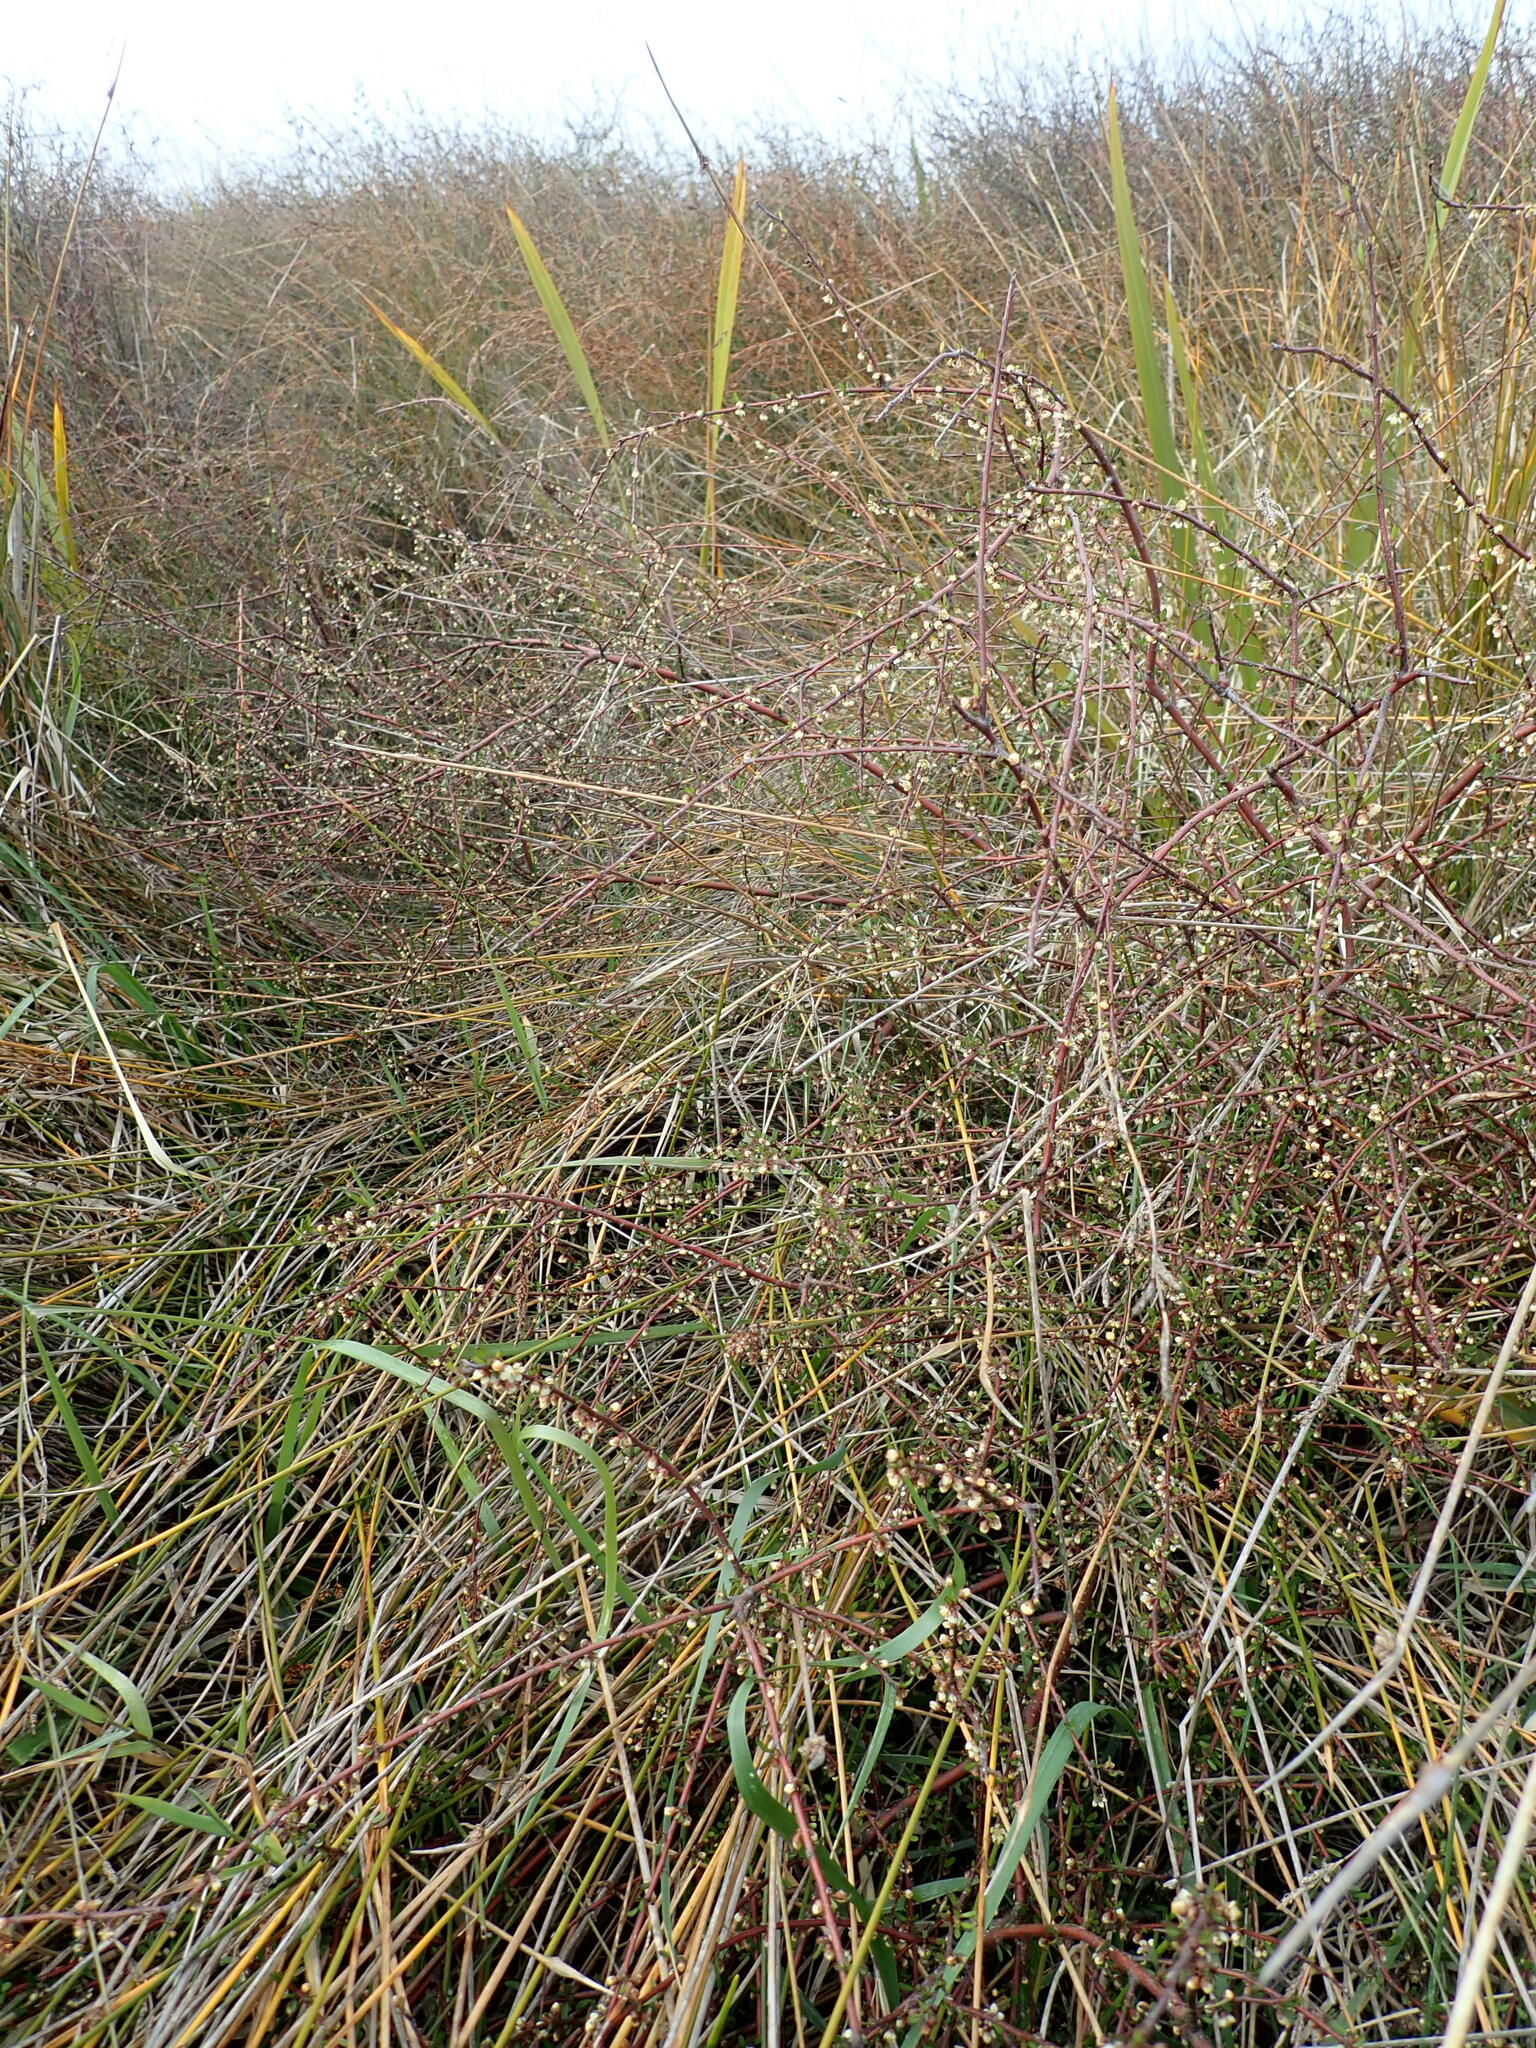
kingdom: Plantae
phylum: Tracheophyta
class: Magnoliopsida
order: Malvales
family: Malvaceae
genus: Plagianthus
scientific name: Plagianthus divaricatus
